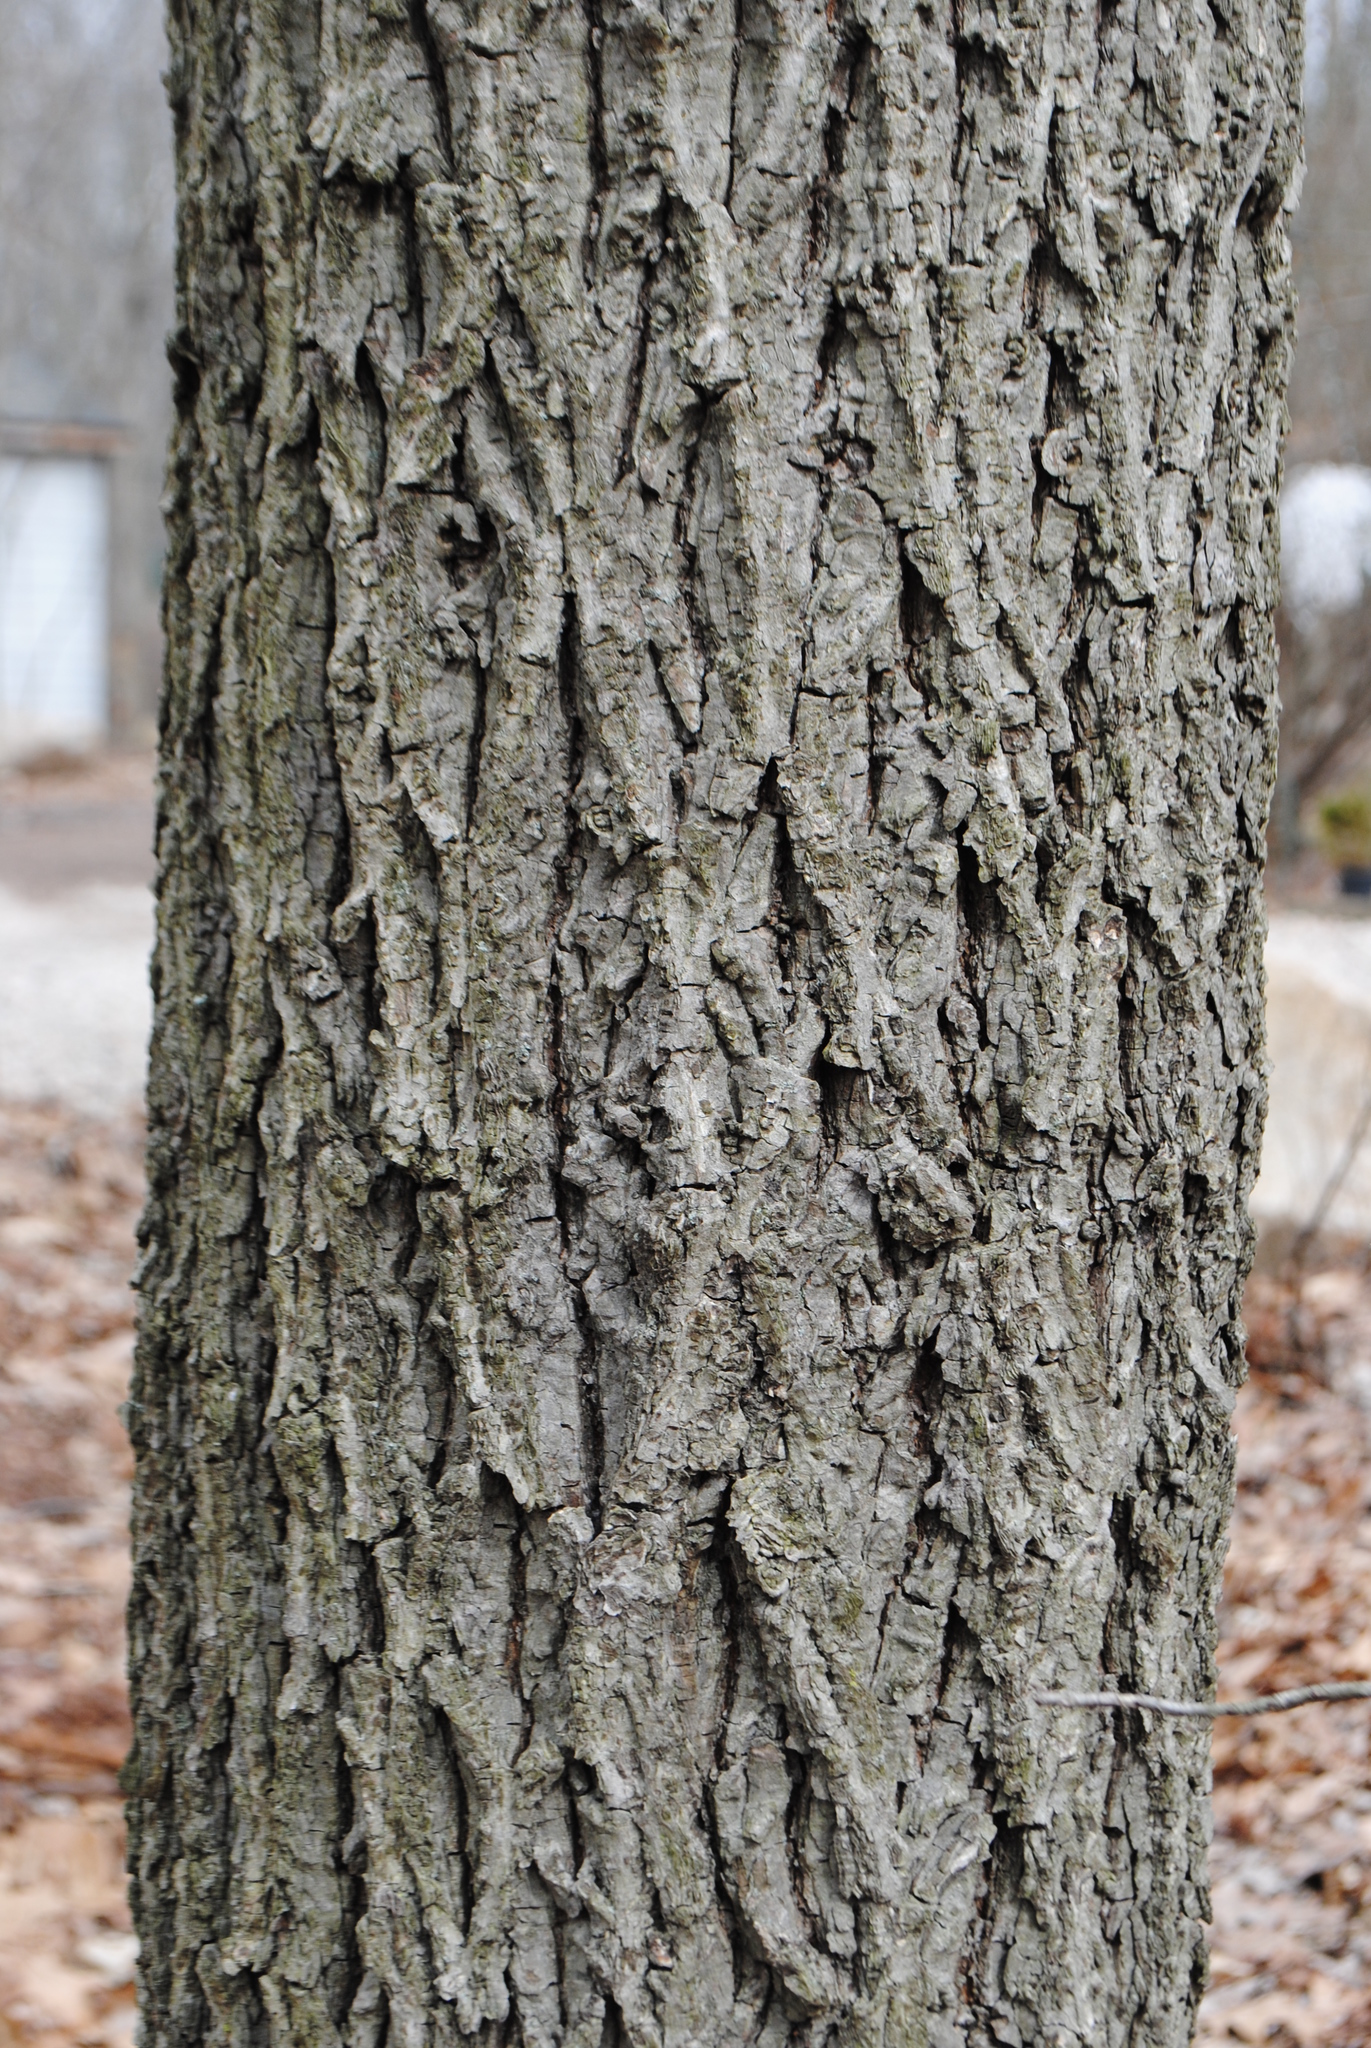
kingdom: Plantae
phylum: Tracheophyta
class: Magnoliopsida
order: Fagales
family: Juglandaceae
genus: Carya
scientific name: Carya glabra
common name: Pignut hickory
